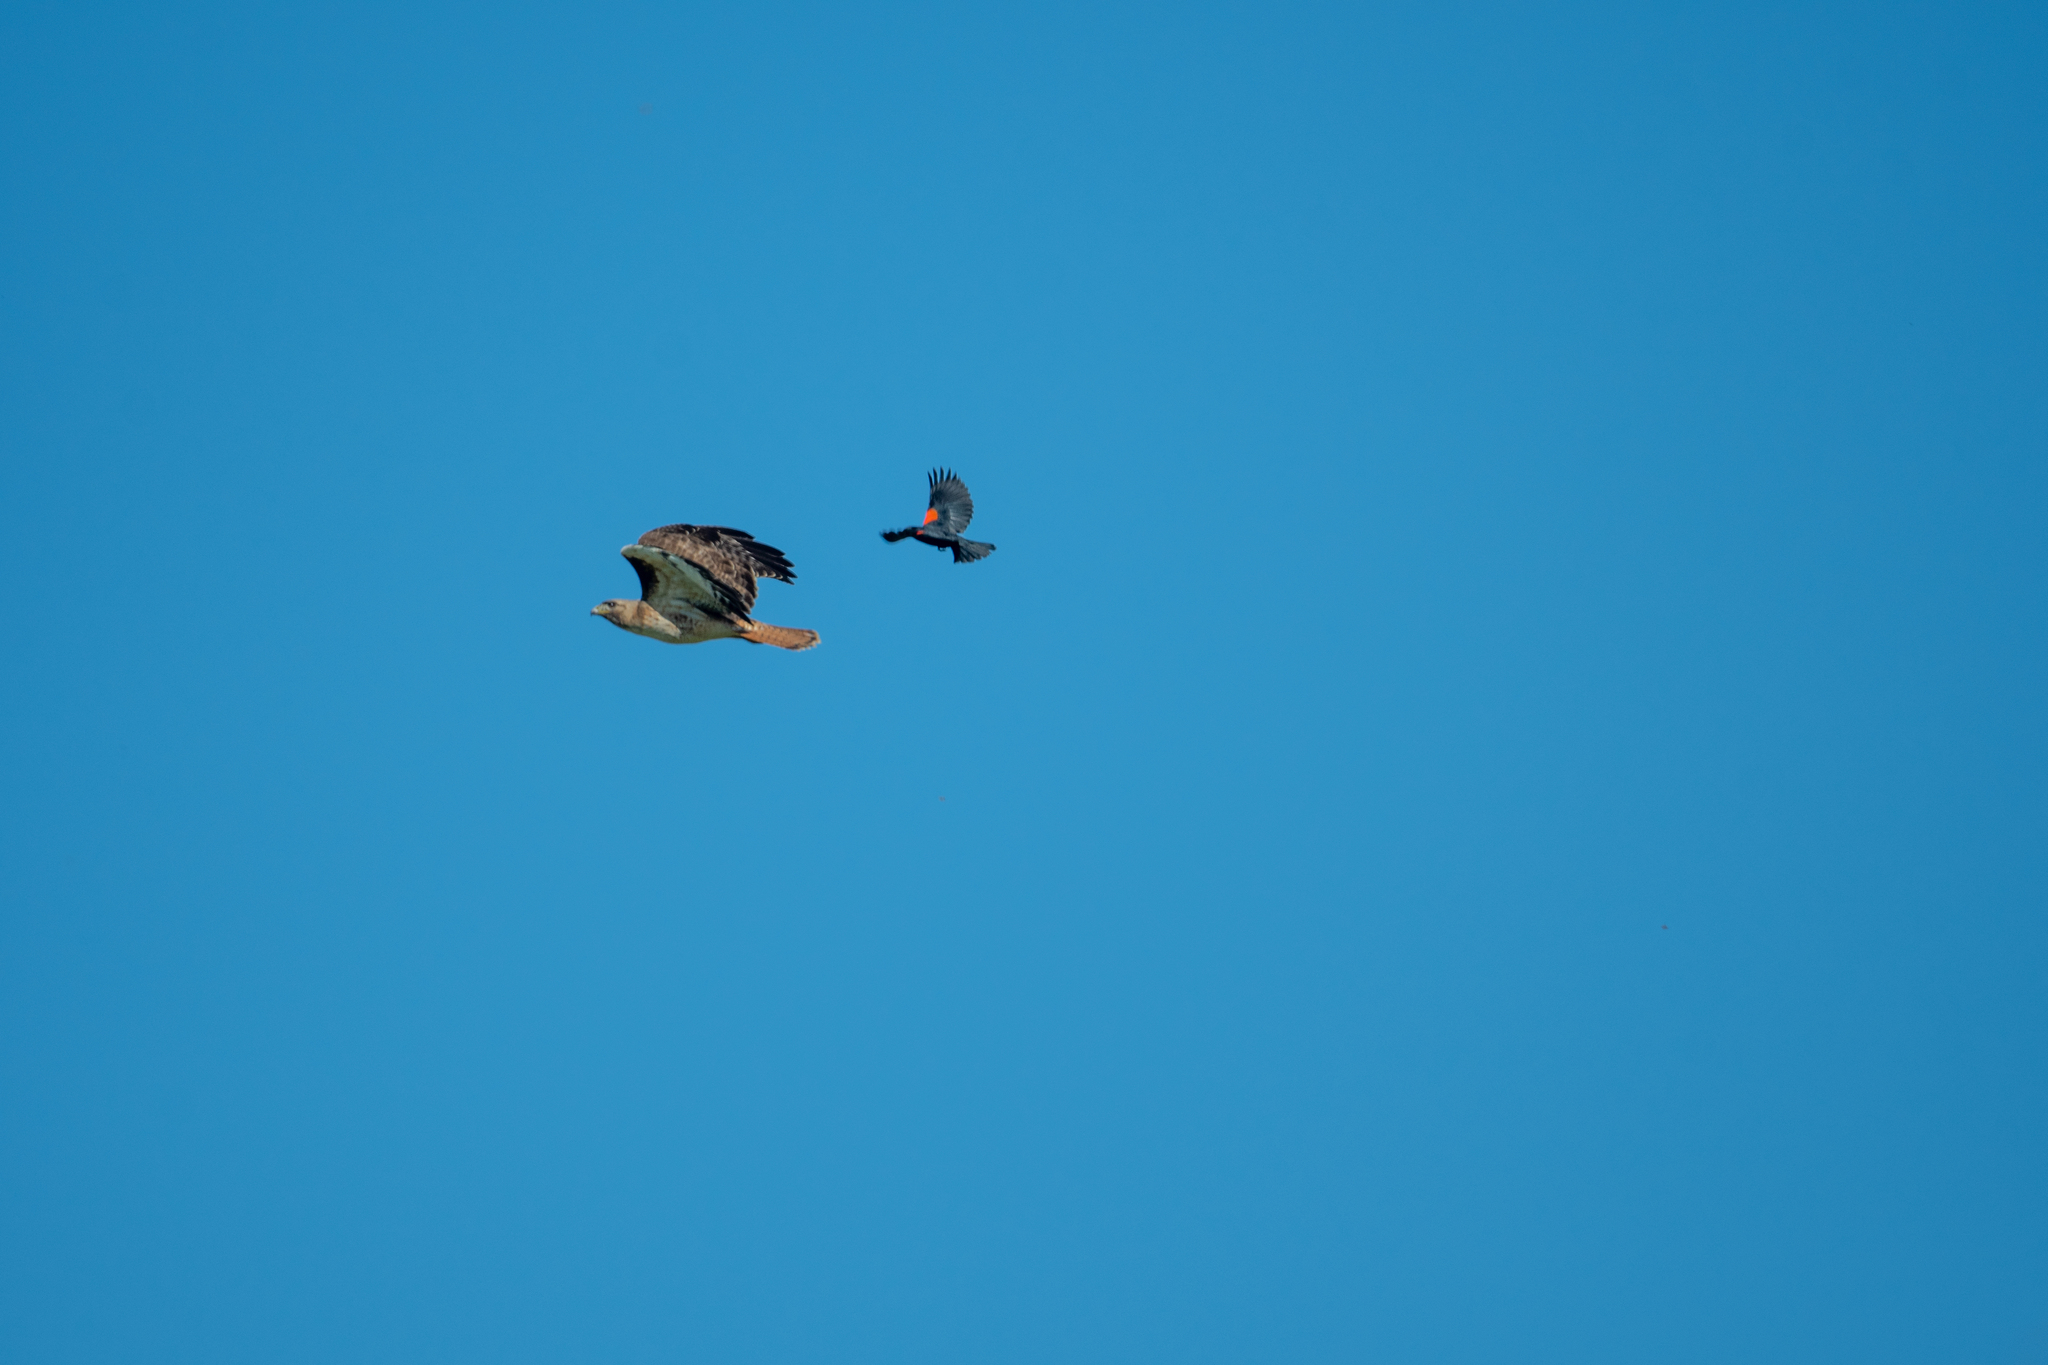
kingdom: Animalia
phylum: Chordata
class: Aves
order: Passeriformes
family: Icteridae
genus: Agelaius
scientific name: Agelaius phoeniceus
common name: Red-winged blackbird
